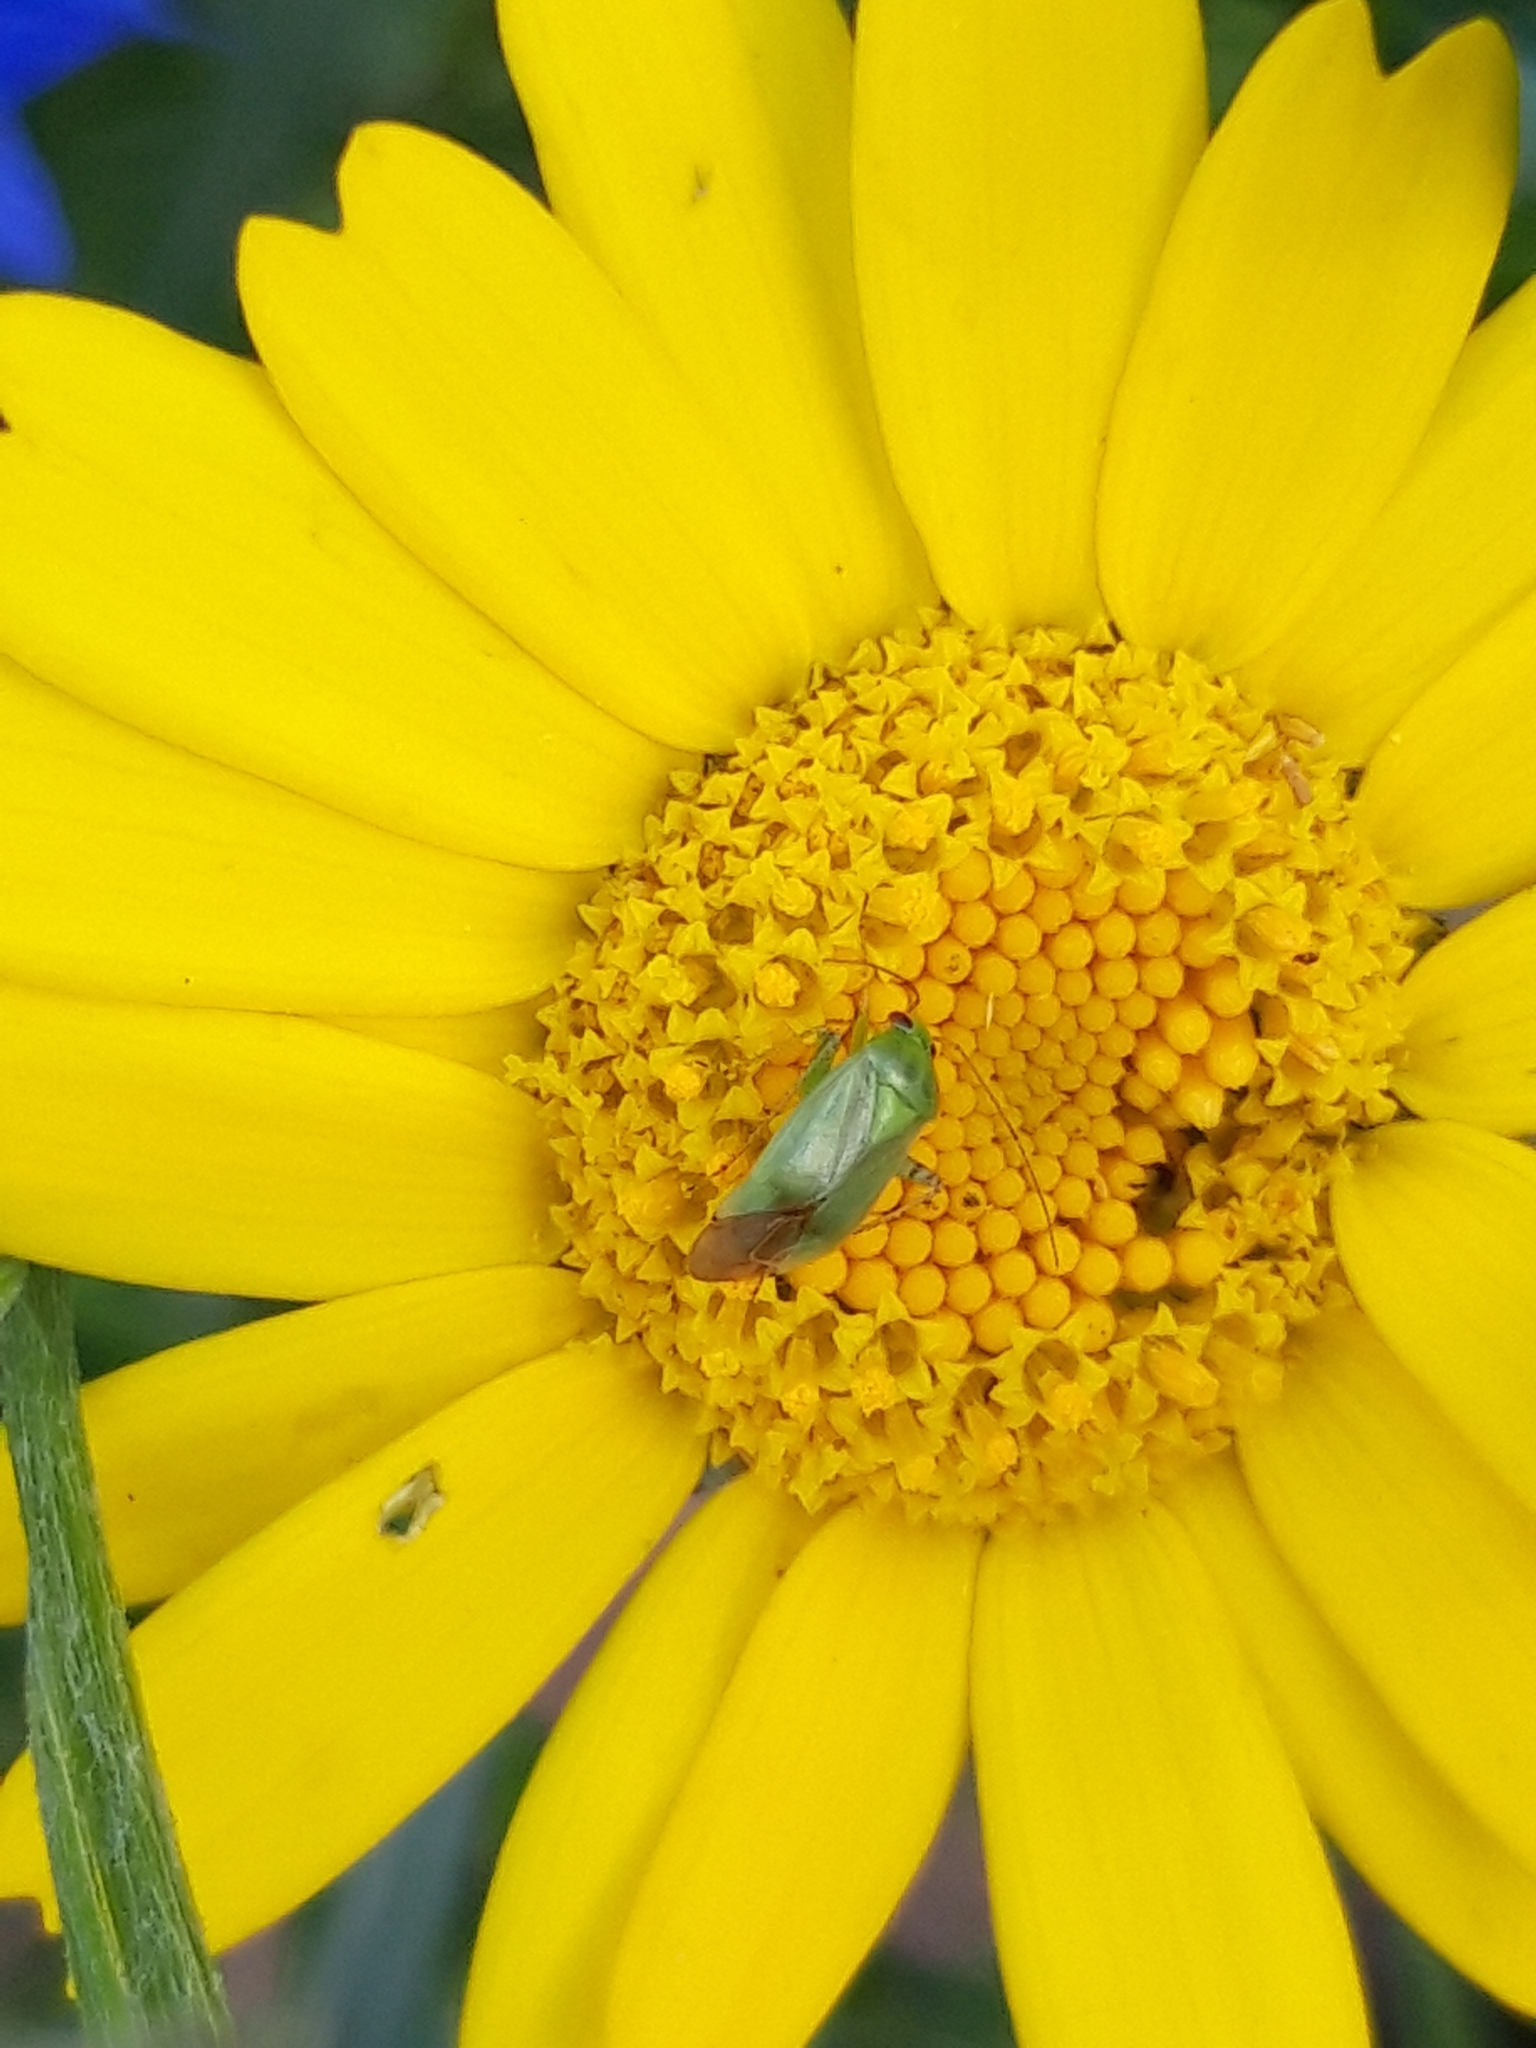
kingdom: Animalia
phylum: Arthropoda
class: Insecta
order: Hemiptera
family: Miridae
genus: Apolygus
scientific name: Apolygus spinolae
